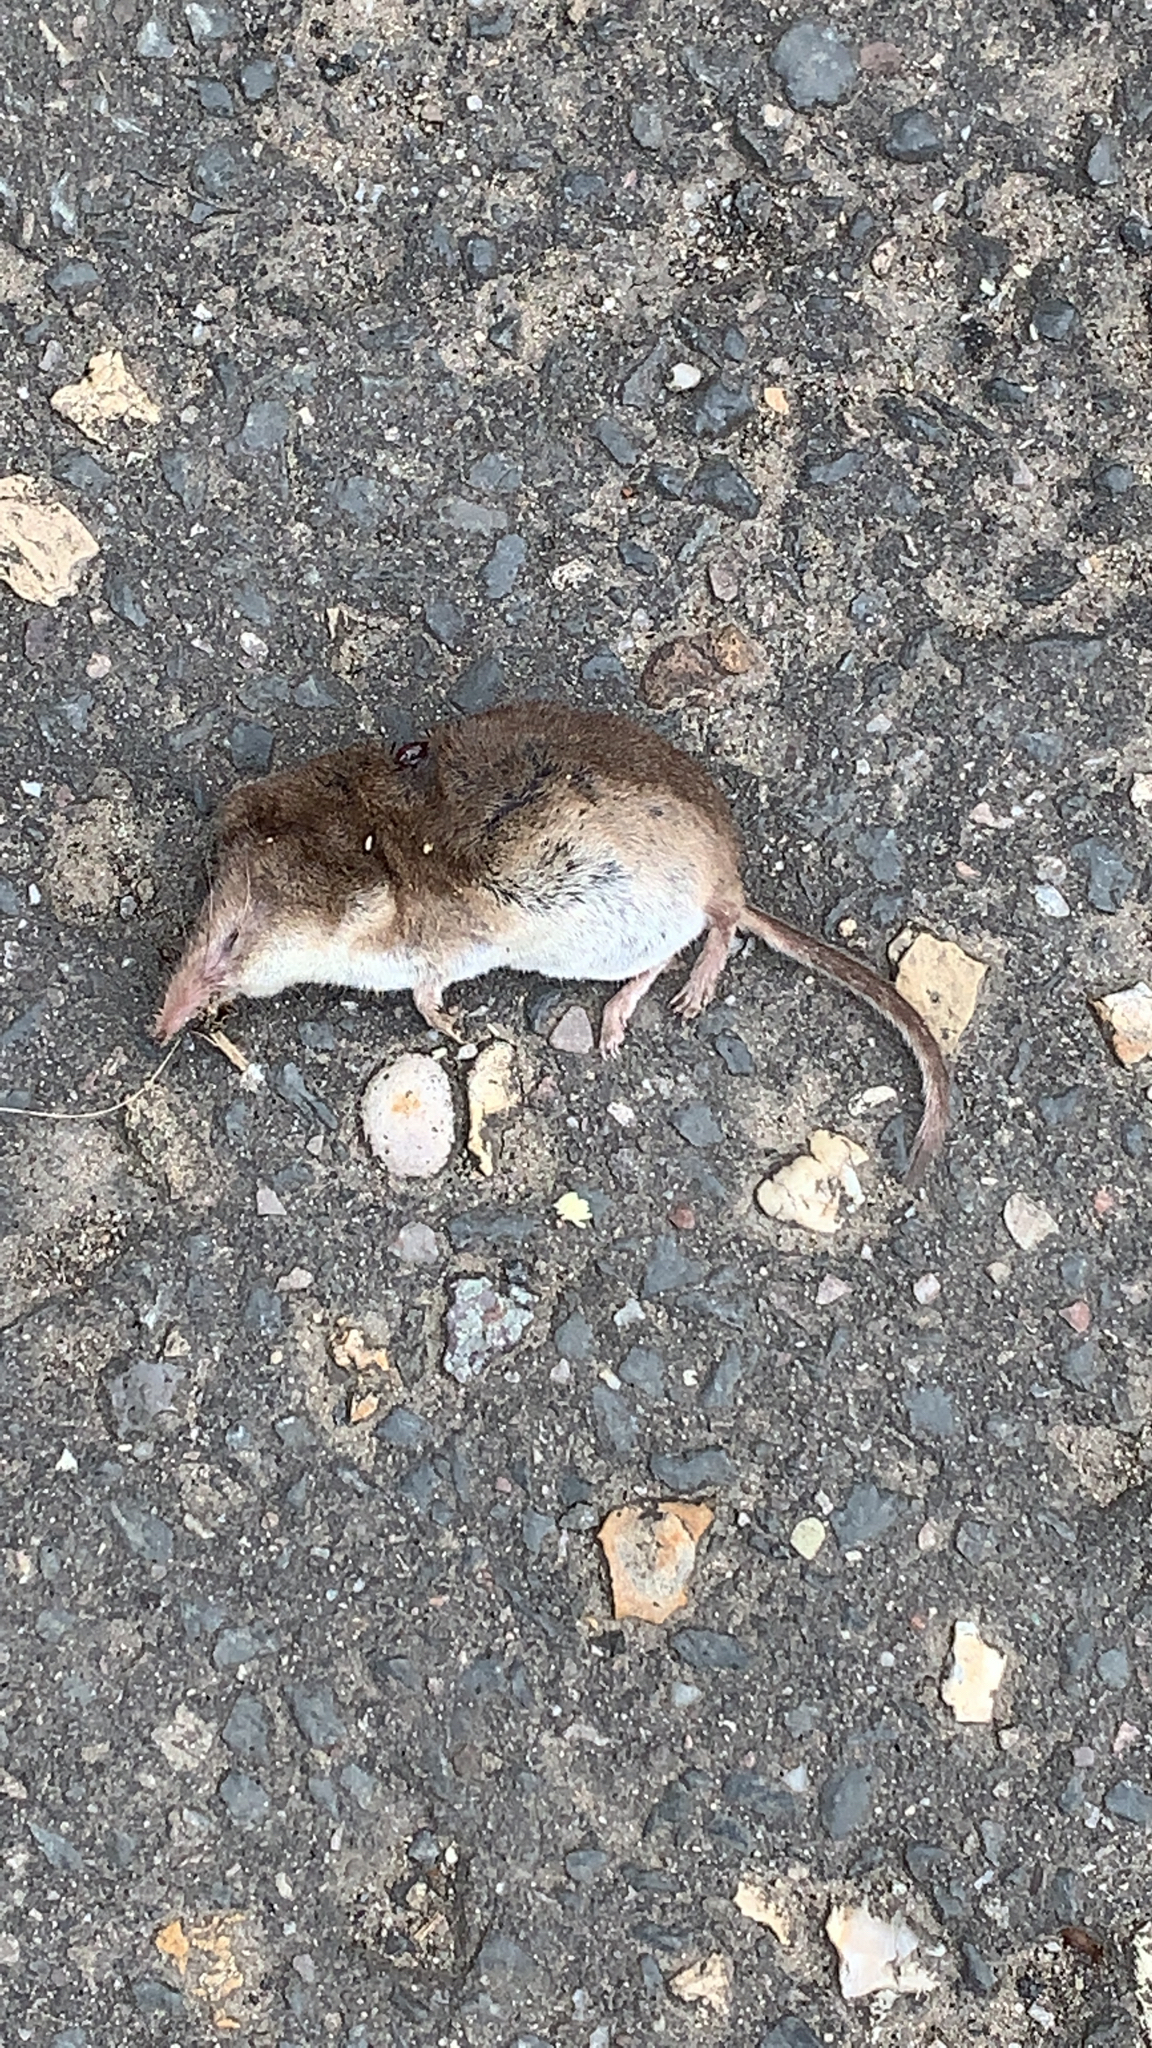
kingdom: Animalia
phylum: Chordata
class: Mammalia
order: Soricomorpha
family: Soricidae
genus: Sorex
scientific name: Sorex araneus
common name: Common shrew
